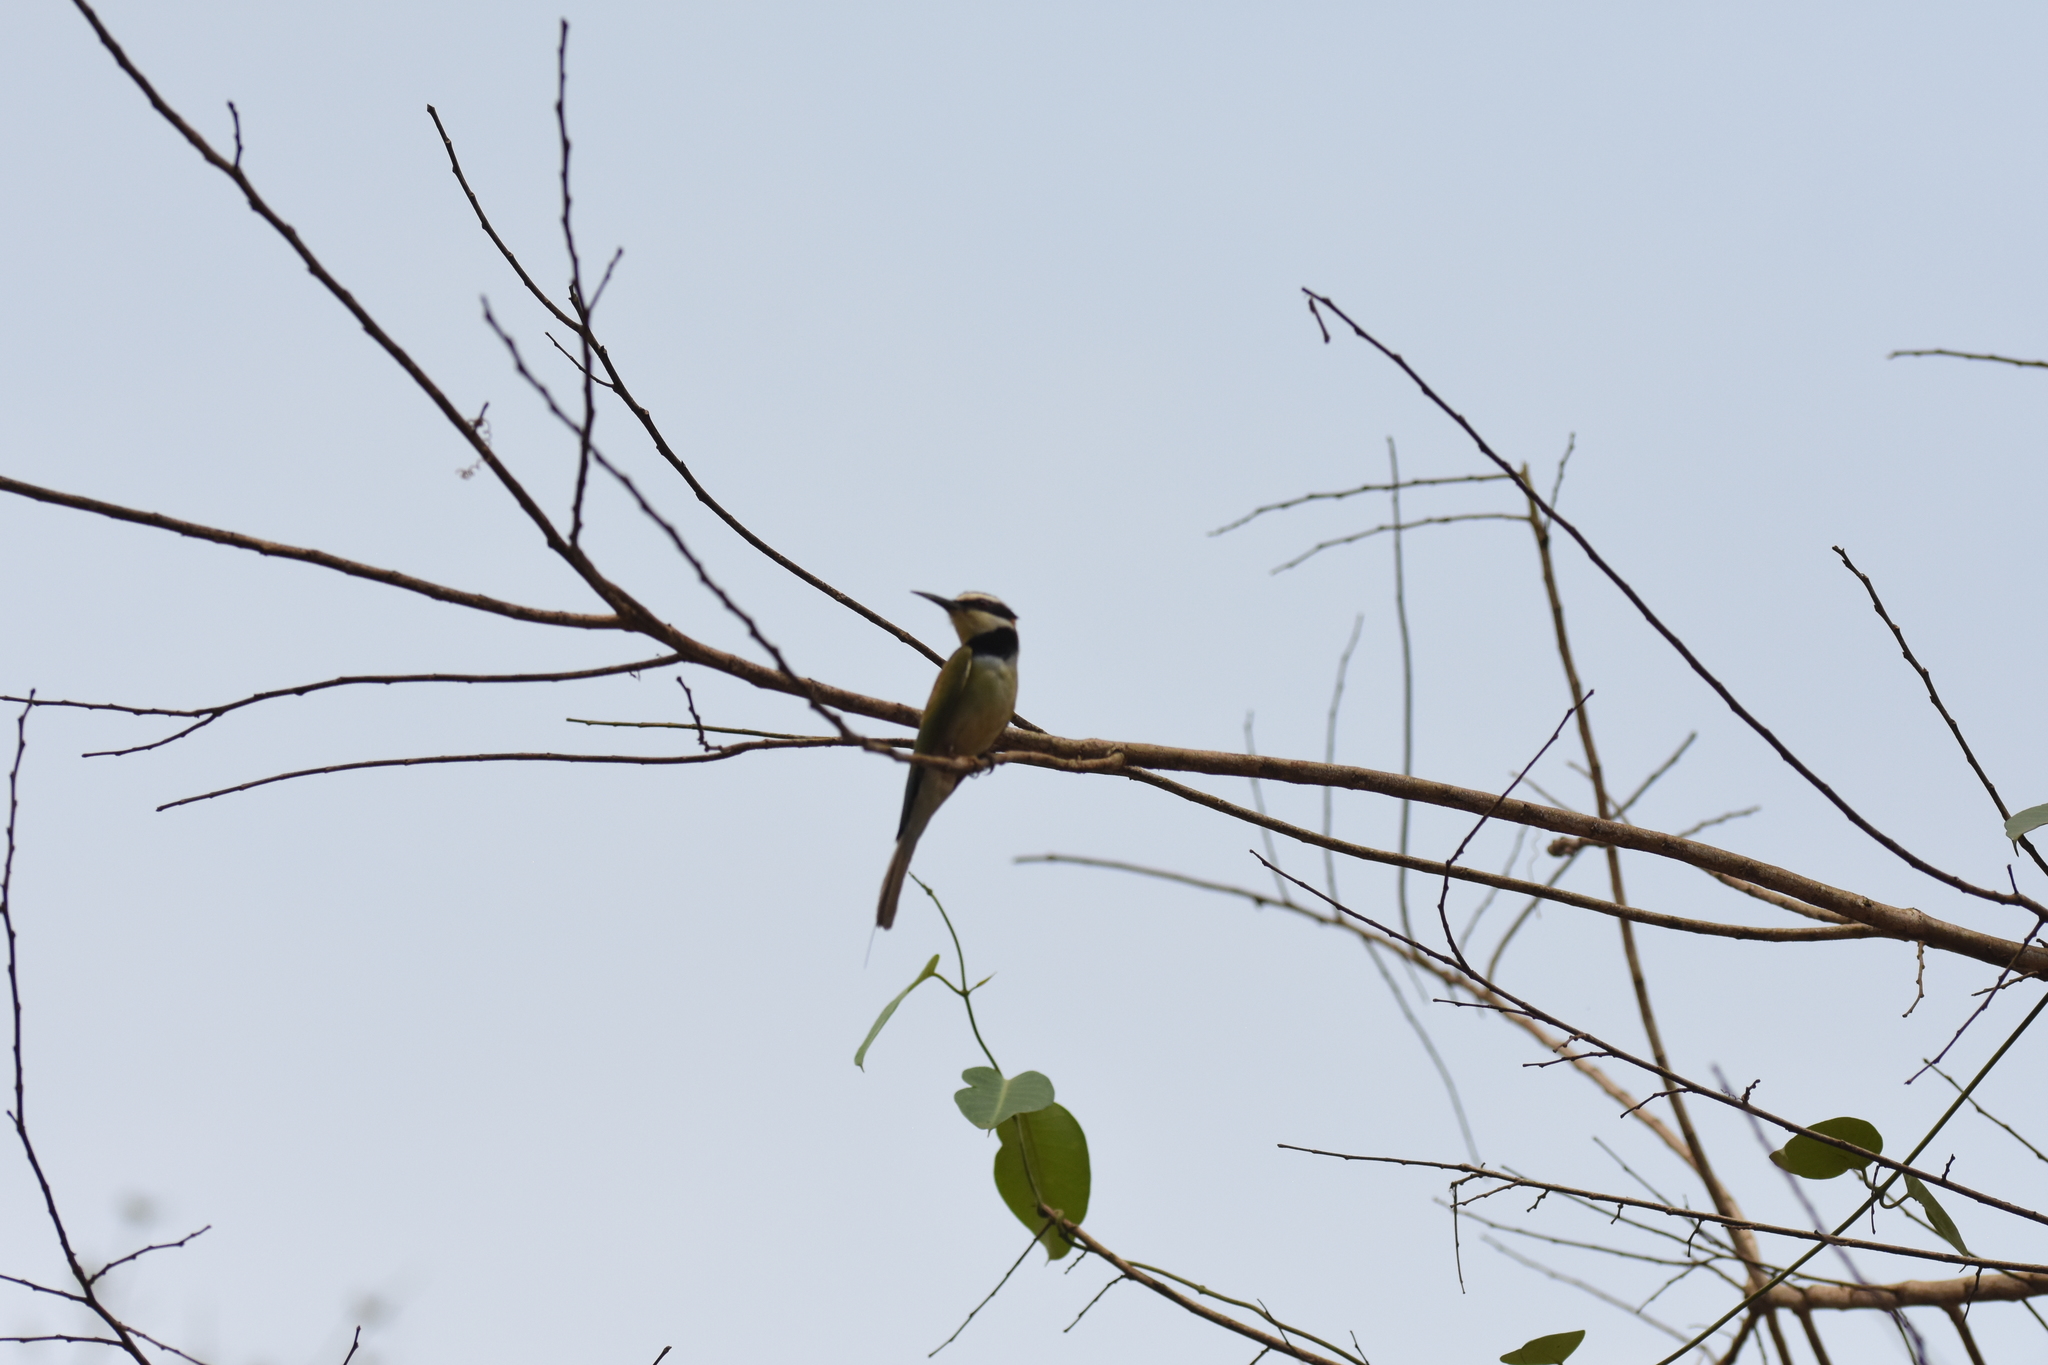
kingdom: Animalia
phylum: Chordata
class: Aves
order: Coraciiformes
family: Meropidae
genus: Merops
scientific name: Merops albicollis
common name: White-throated bee-eater
